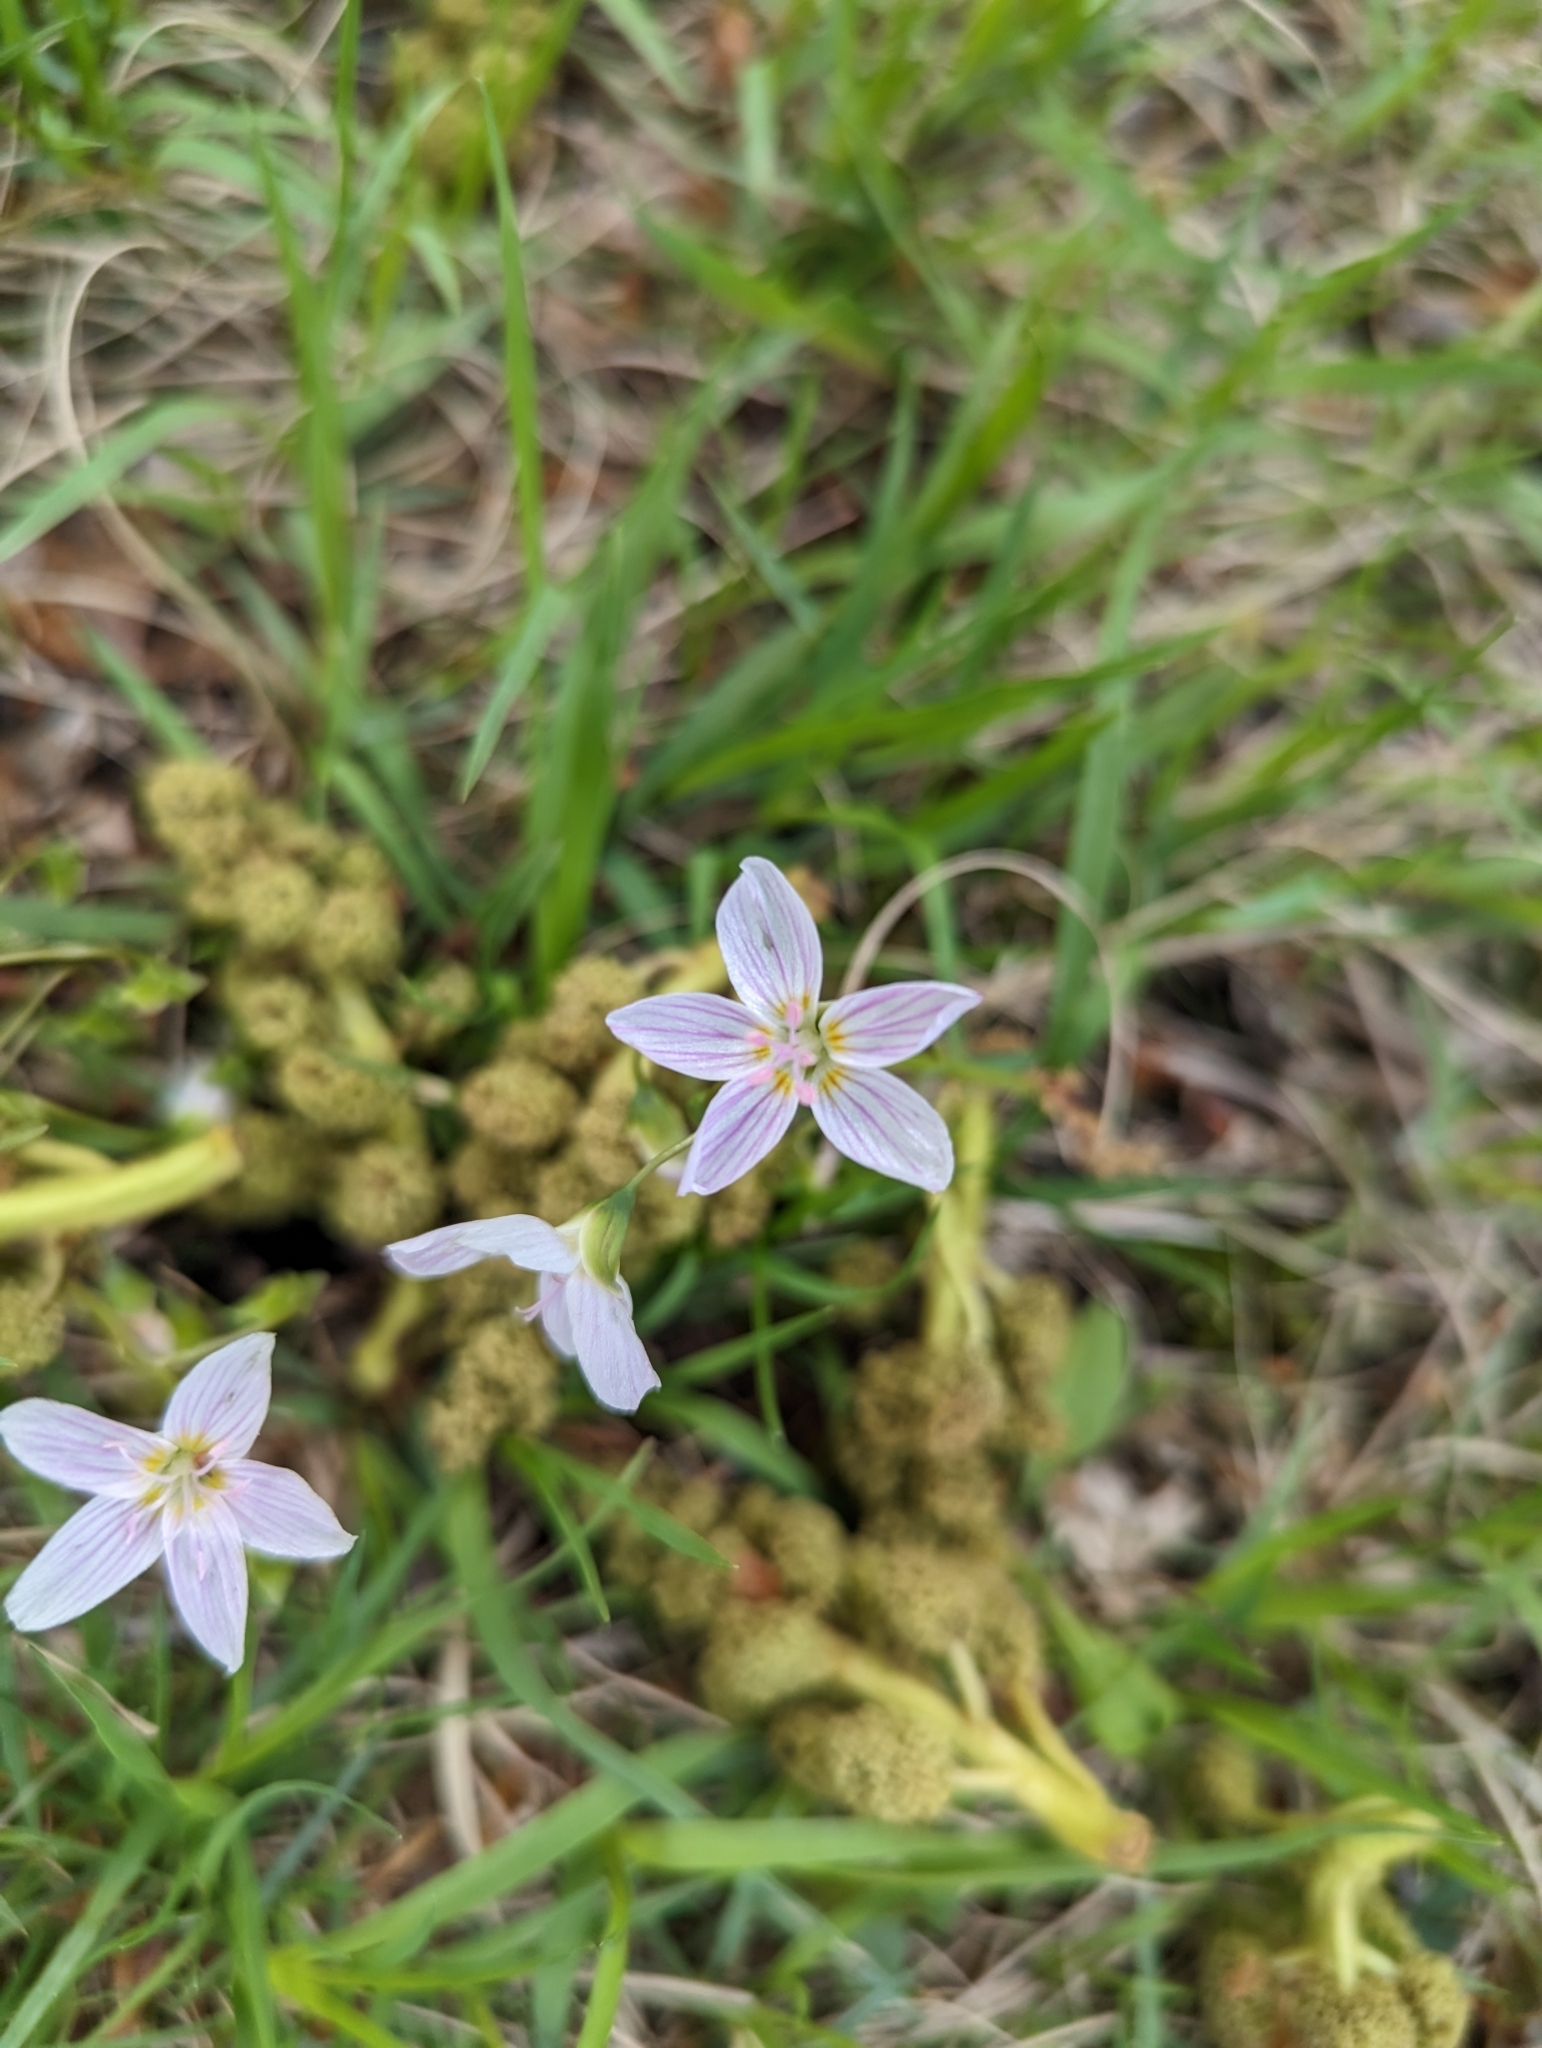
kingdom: Plantae
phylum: Tracheophyta
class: Magnoliopsida
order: Caryophyllales
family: Montiaceae
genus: Claytonia
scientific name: Claytonia virginica
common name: Virginia springbeauty
